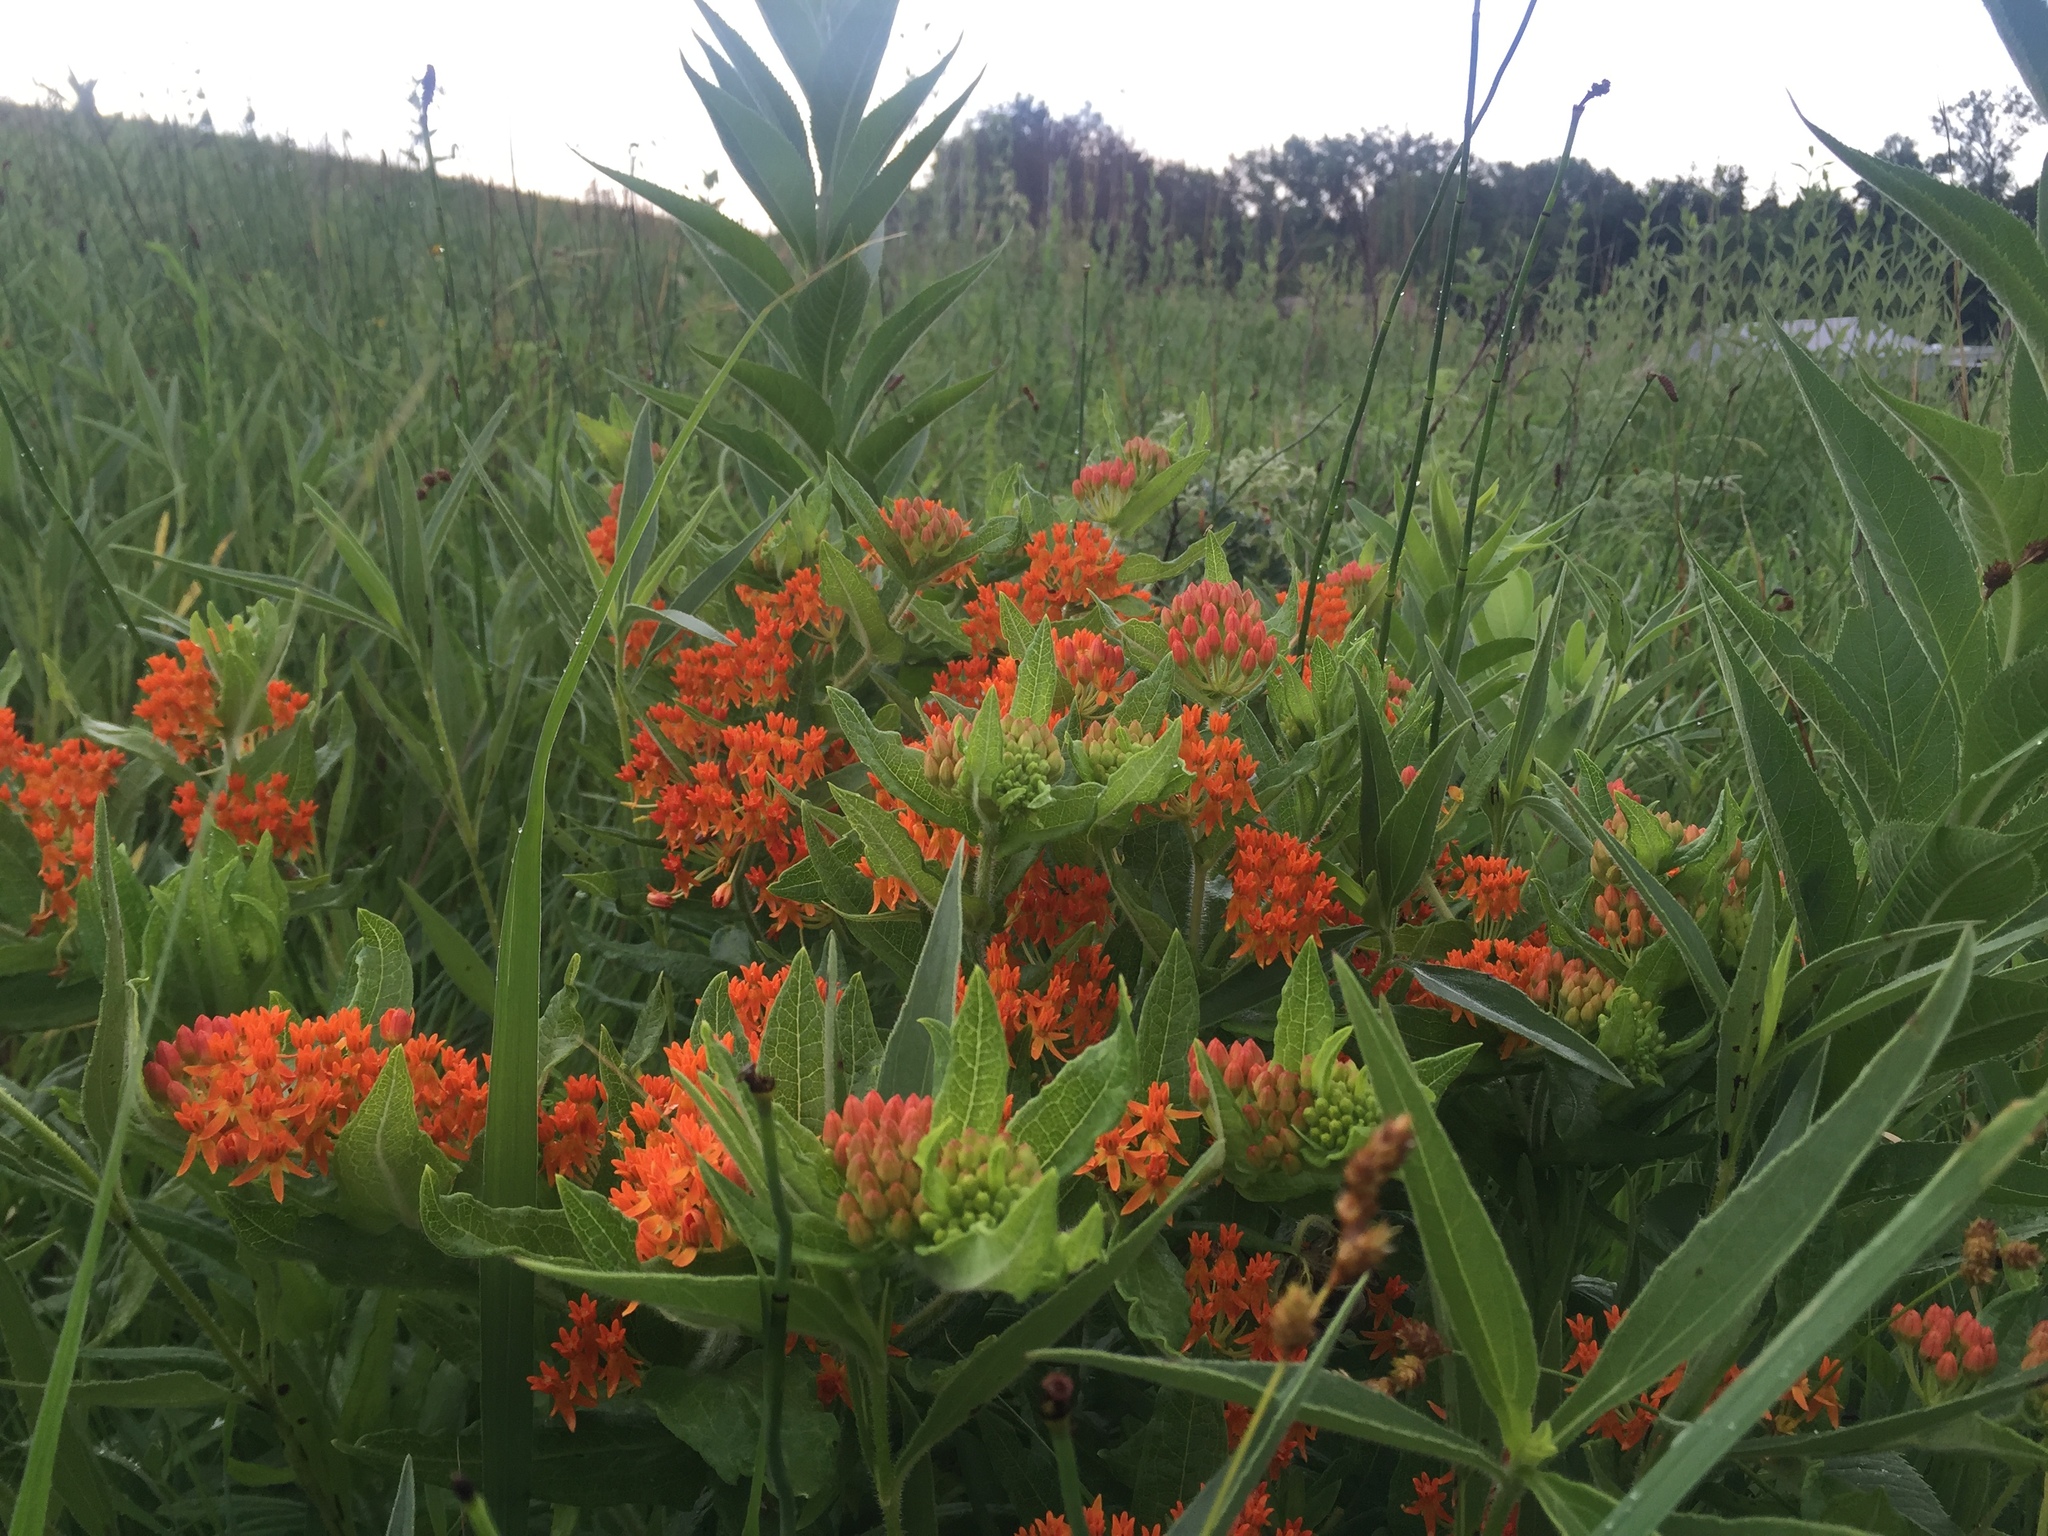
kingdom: Plantae
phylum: Tracheophyta
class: Magnoliopsida
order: Gentianales
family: Apocynaceae
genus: Asclepias
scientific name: Asclepias tuberosa
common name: Butterfly milkweed
